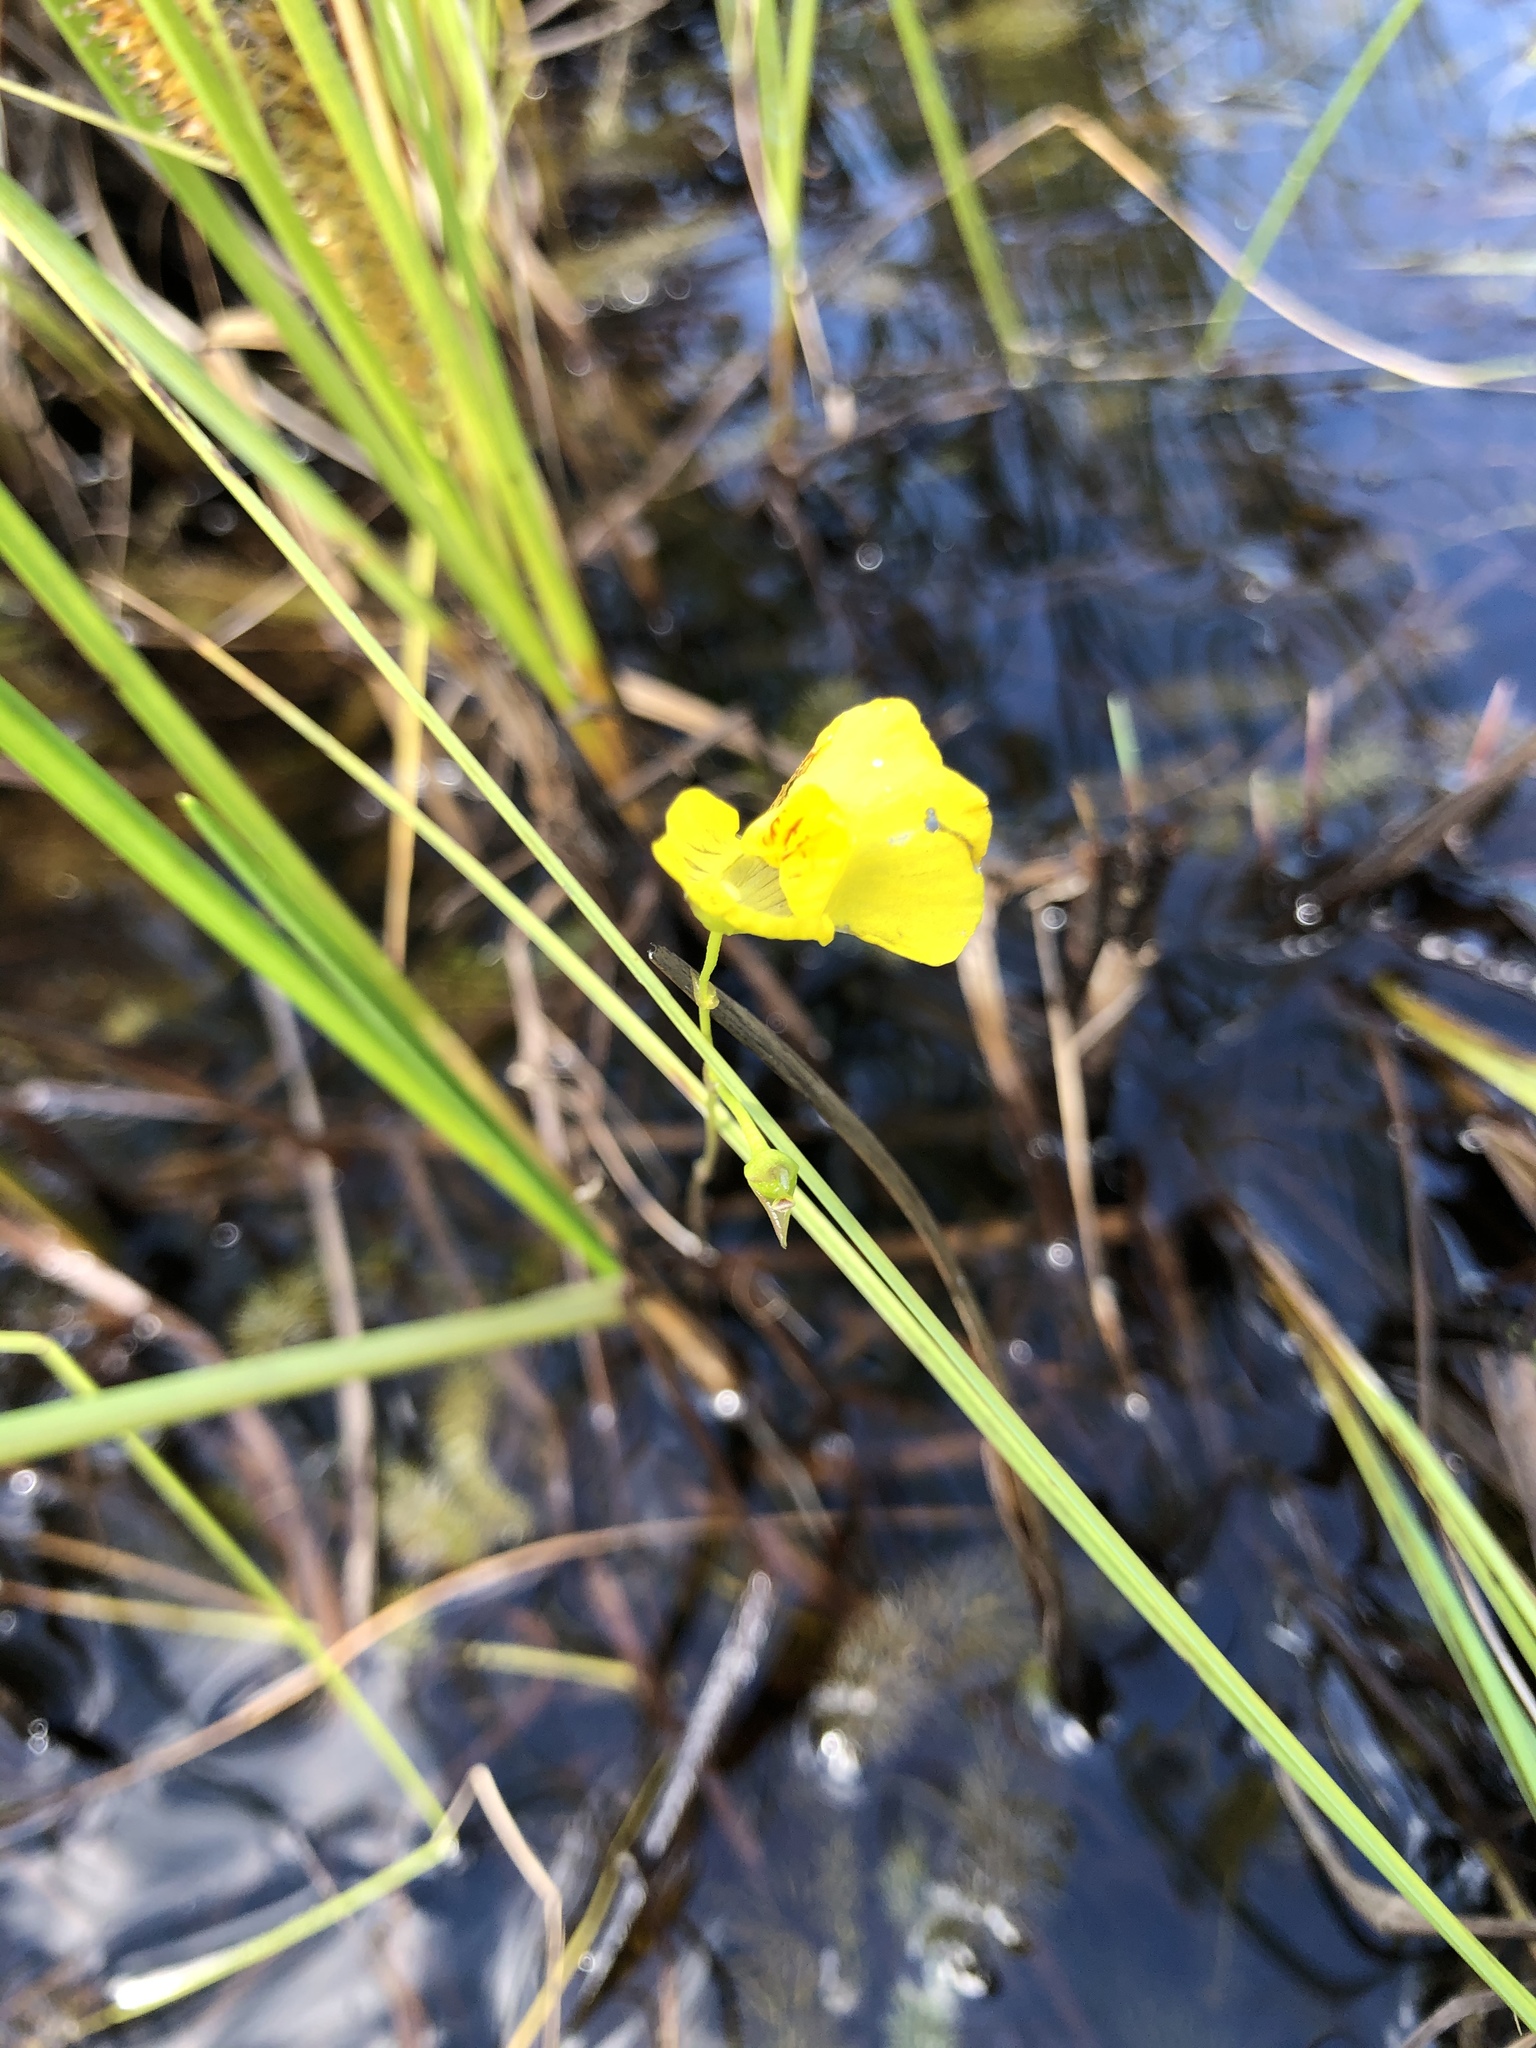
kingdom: Plantae
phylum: Tracheophyta
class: Magnoliopsida
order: Lamiales
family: Lentibulariaceae
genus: Utricularia
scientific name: Utricularia intermedia
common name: Intermediate bladderwort
